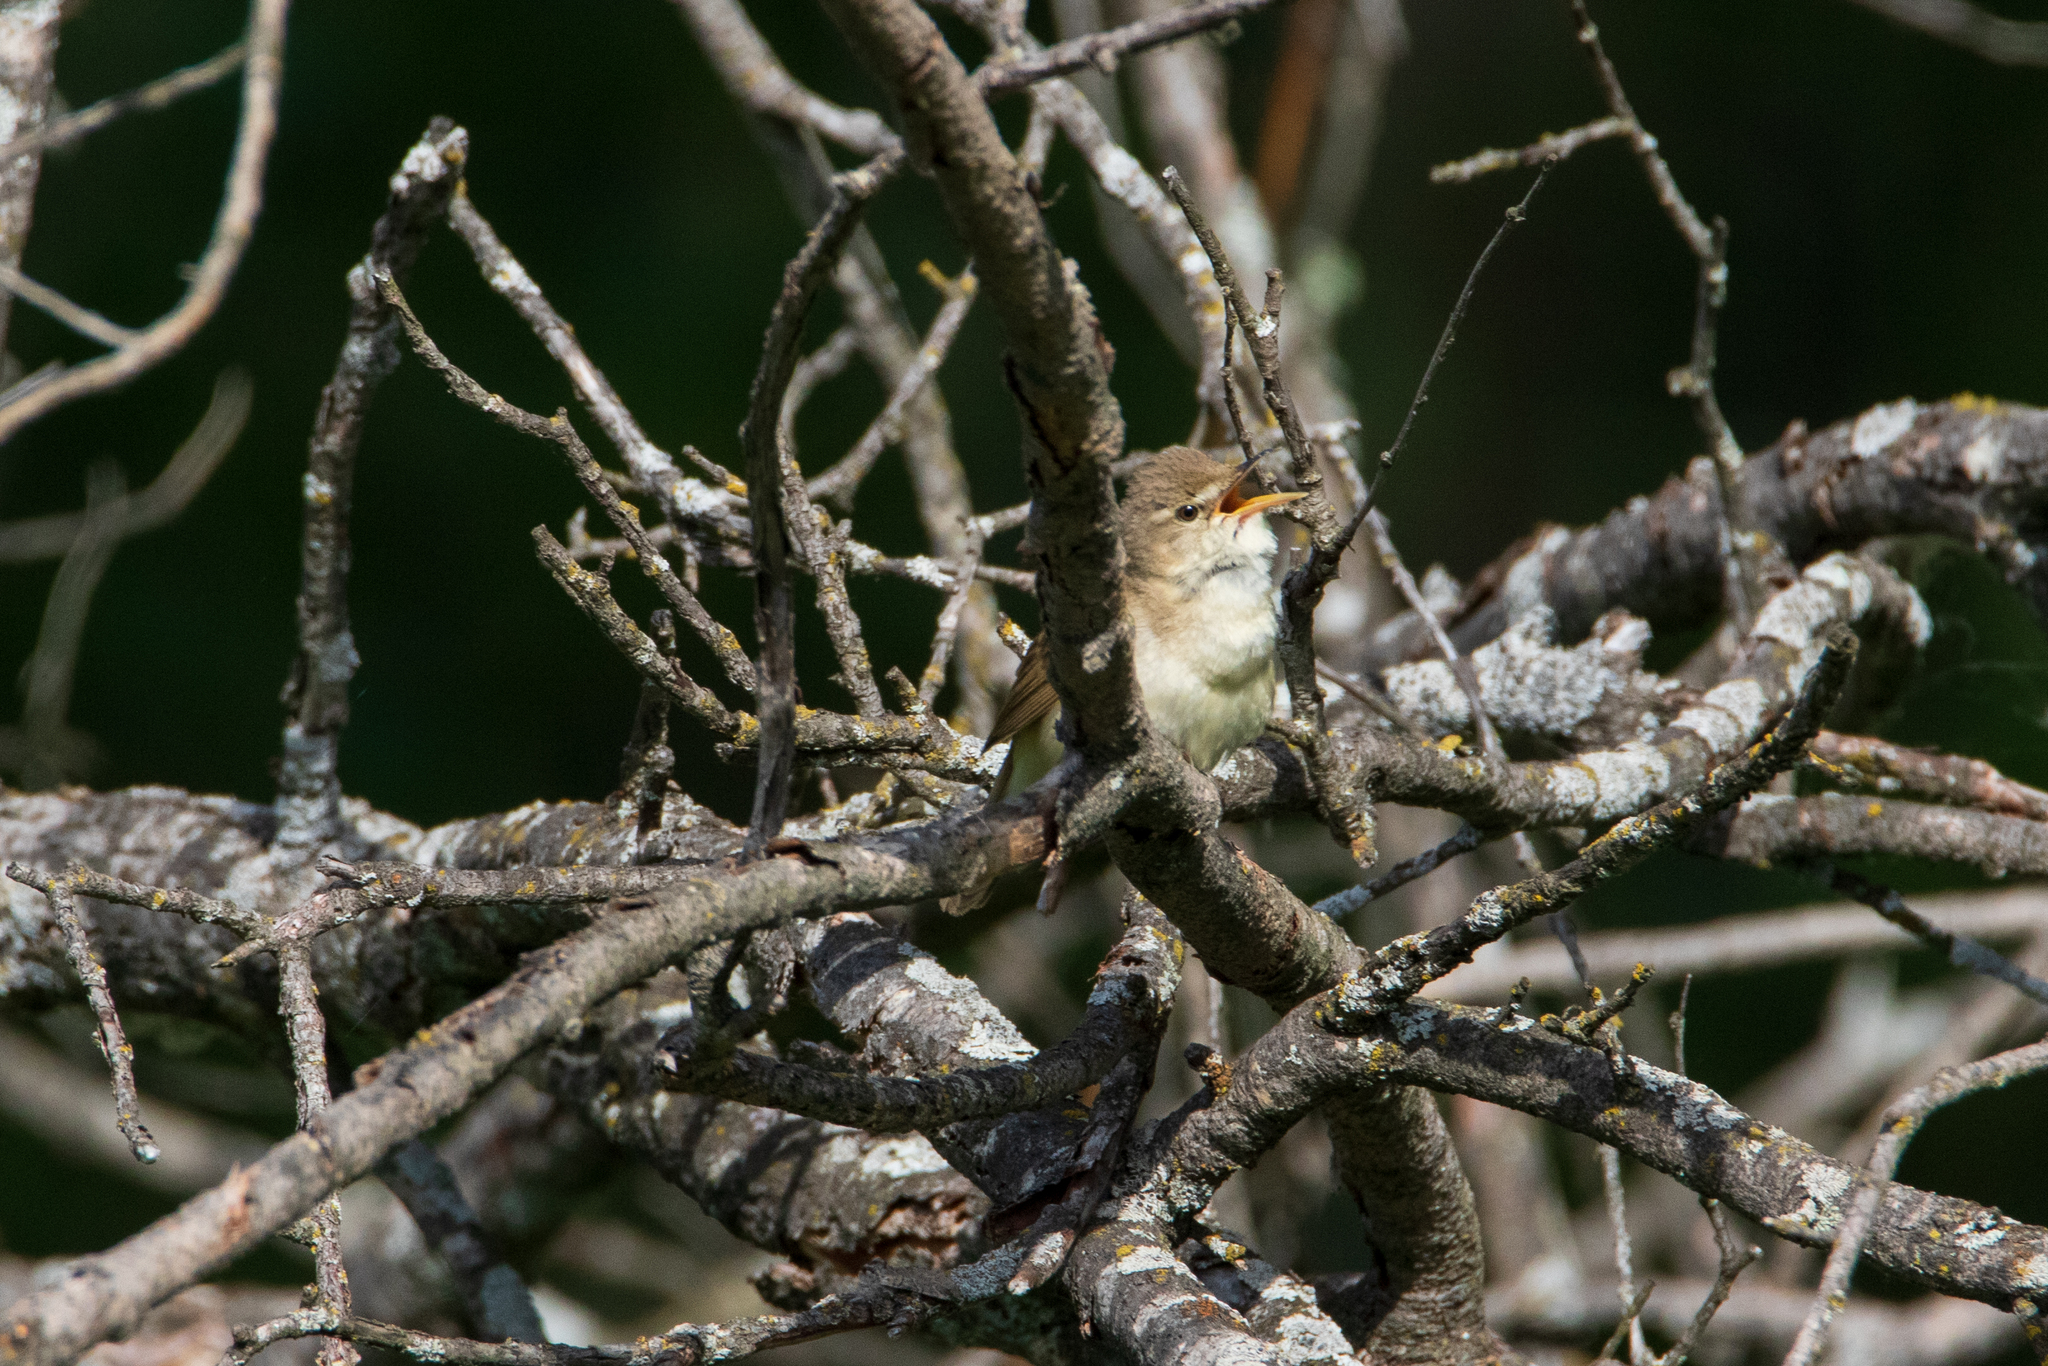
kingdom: Animalia
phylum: Chordata
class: Aves
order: Passeriformes
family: Acrocephalidae
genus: Acrocephalus
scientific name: Acrocephalus dumetorum
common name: Blyth's reed warbler
